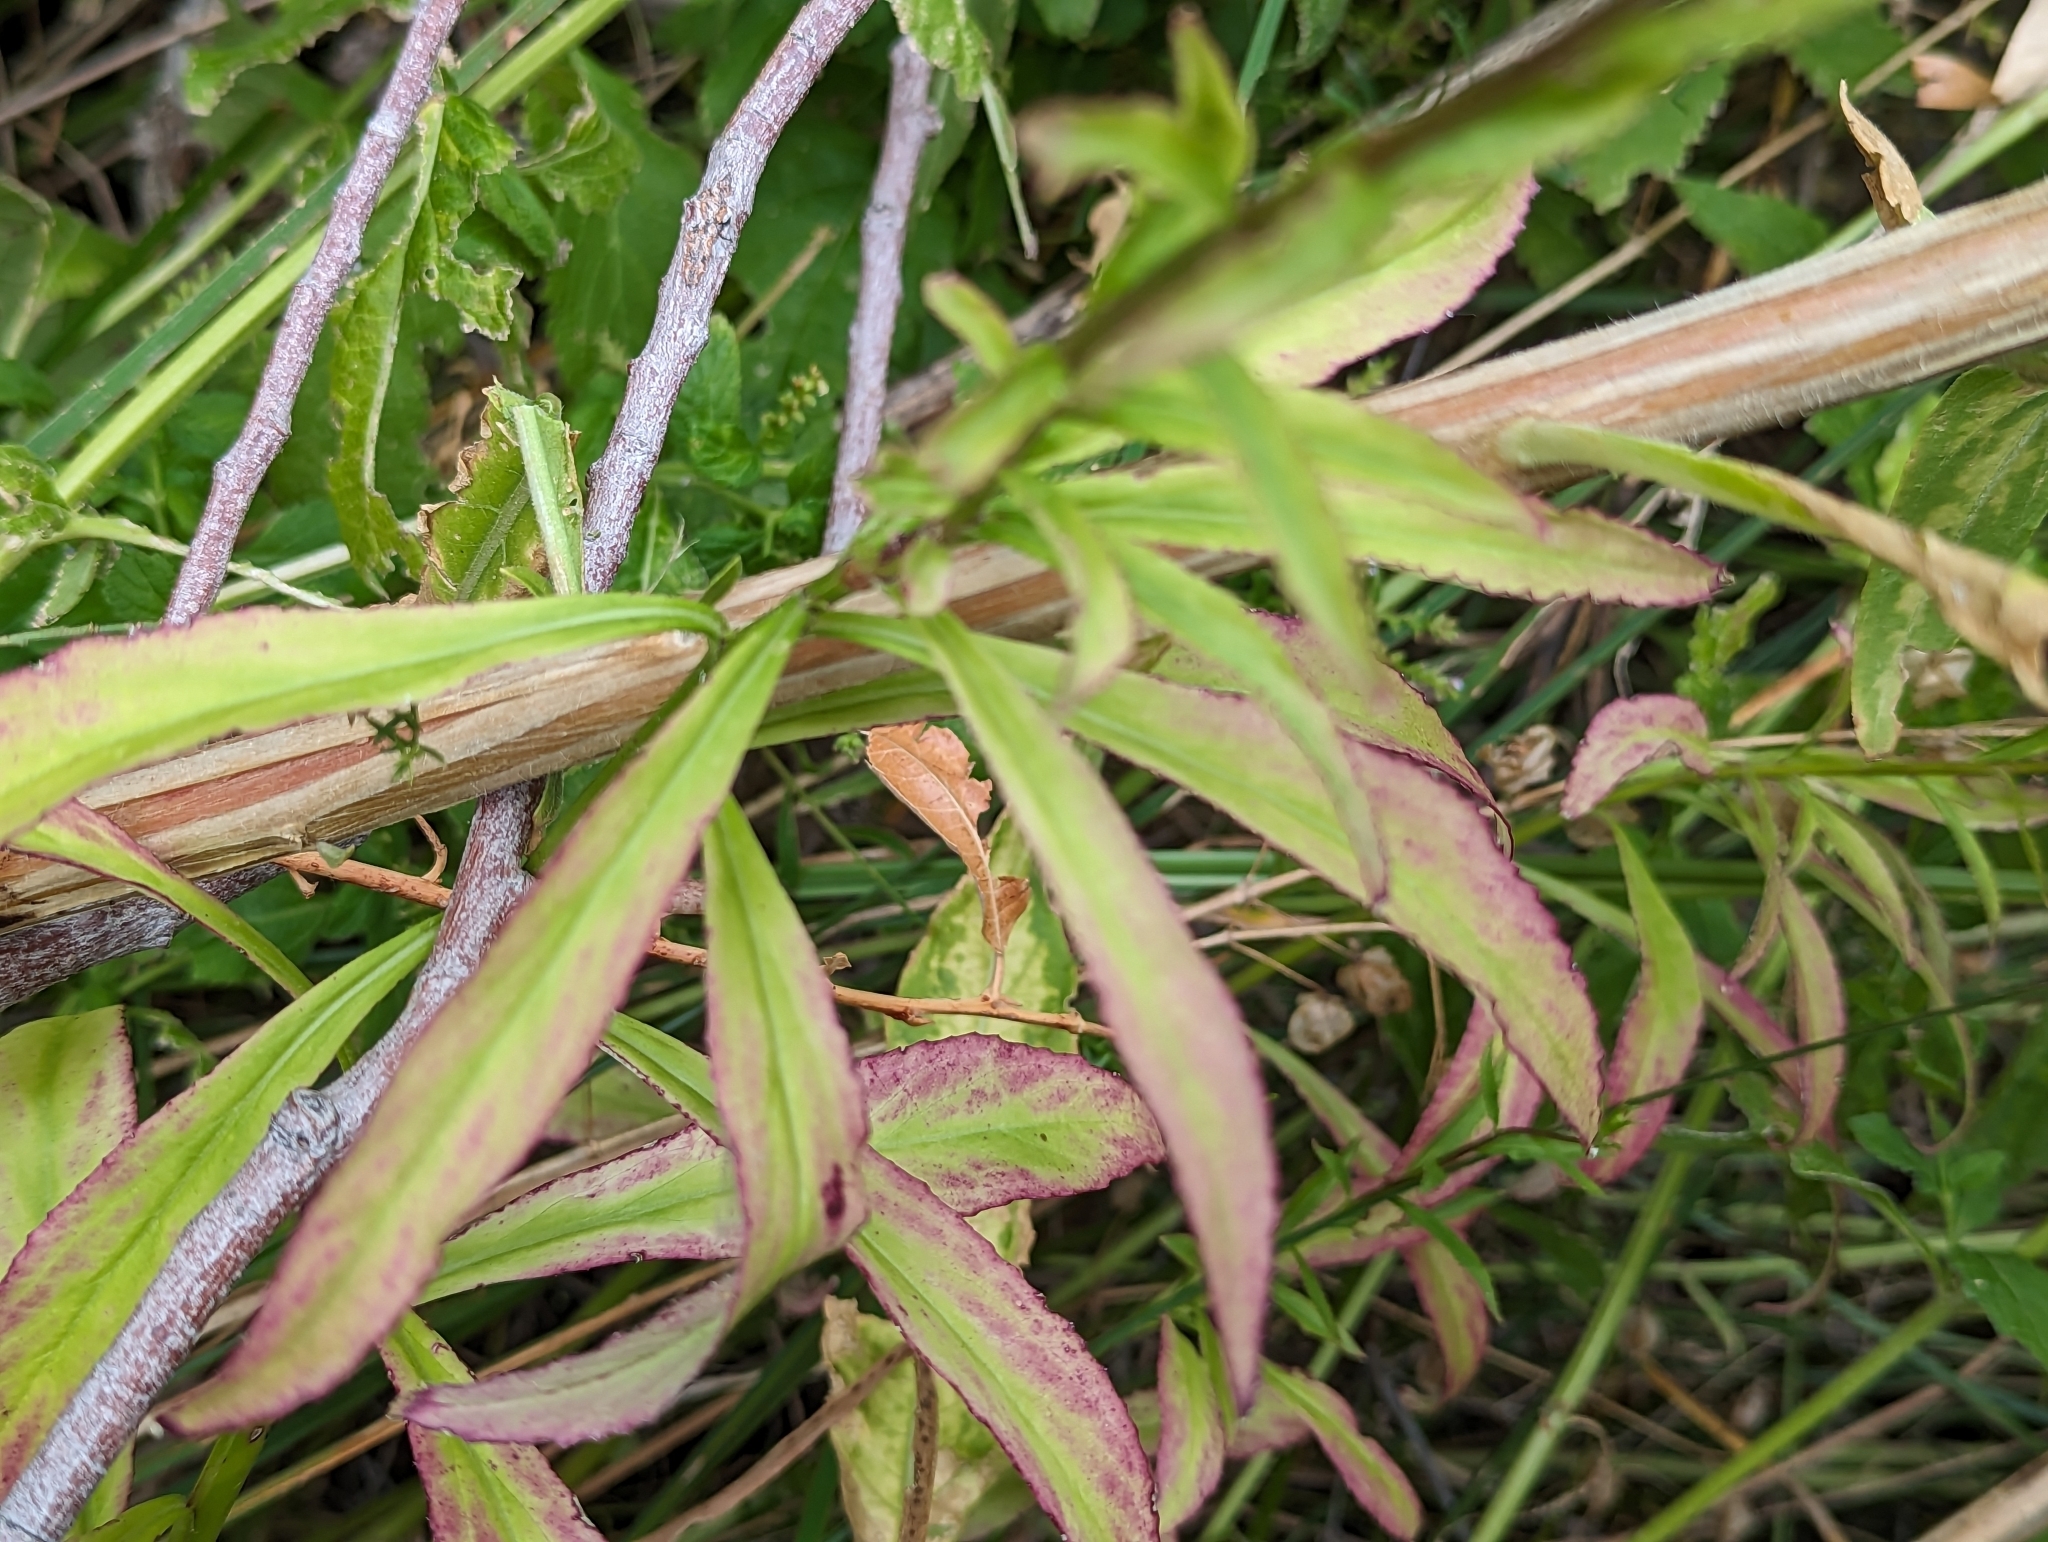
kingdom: Plantae
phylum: Tracheophyta
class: Magnoliopsida
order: Asterales
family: Campanulaceae
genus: Lobelia
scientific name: Lobelia cardinalis
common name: Cardinal flower
